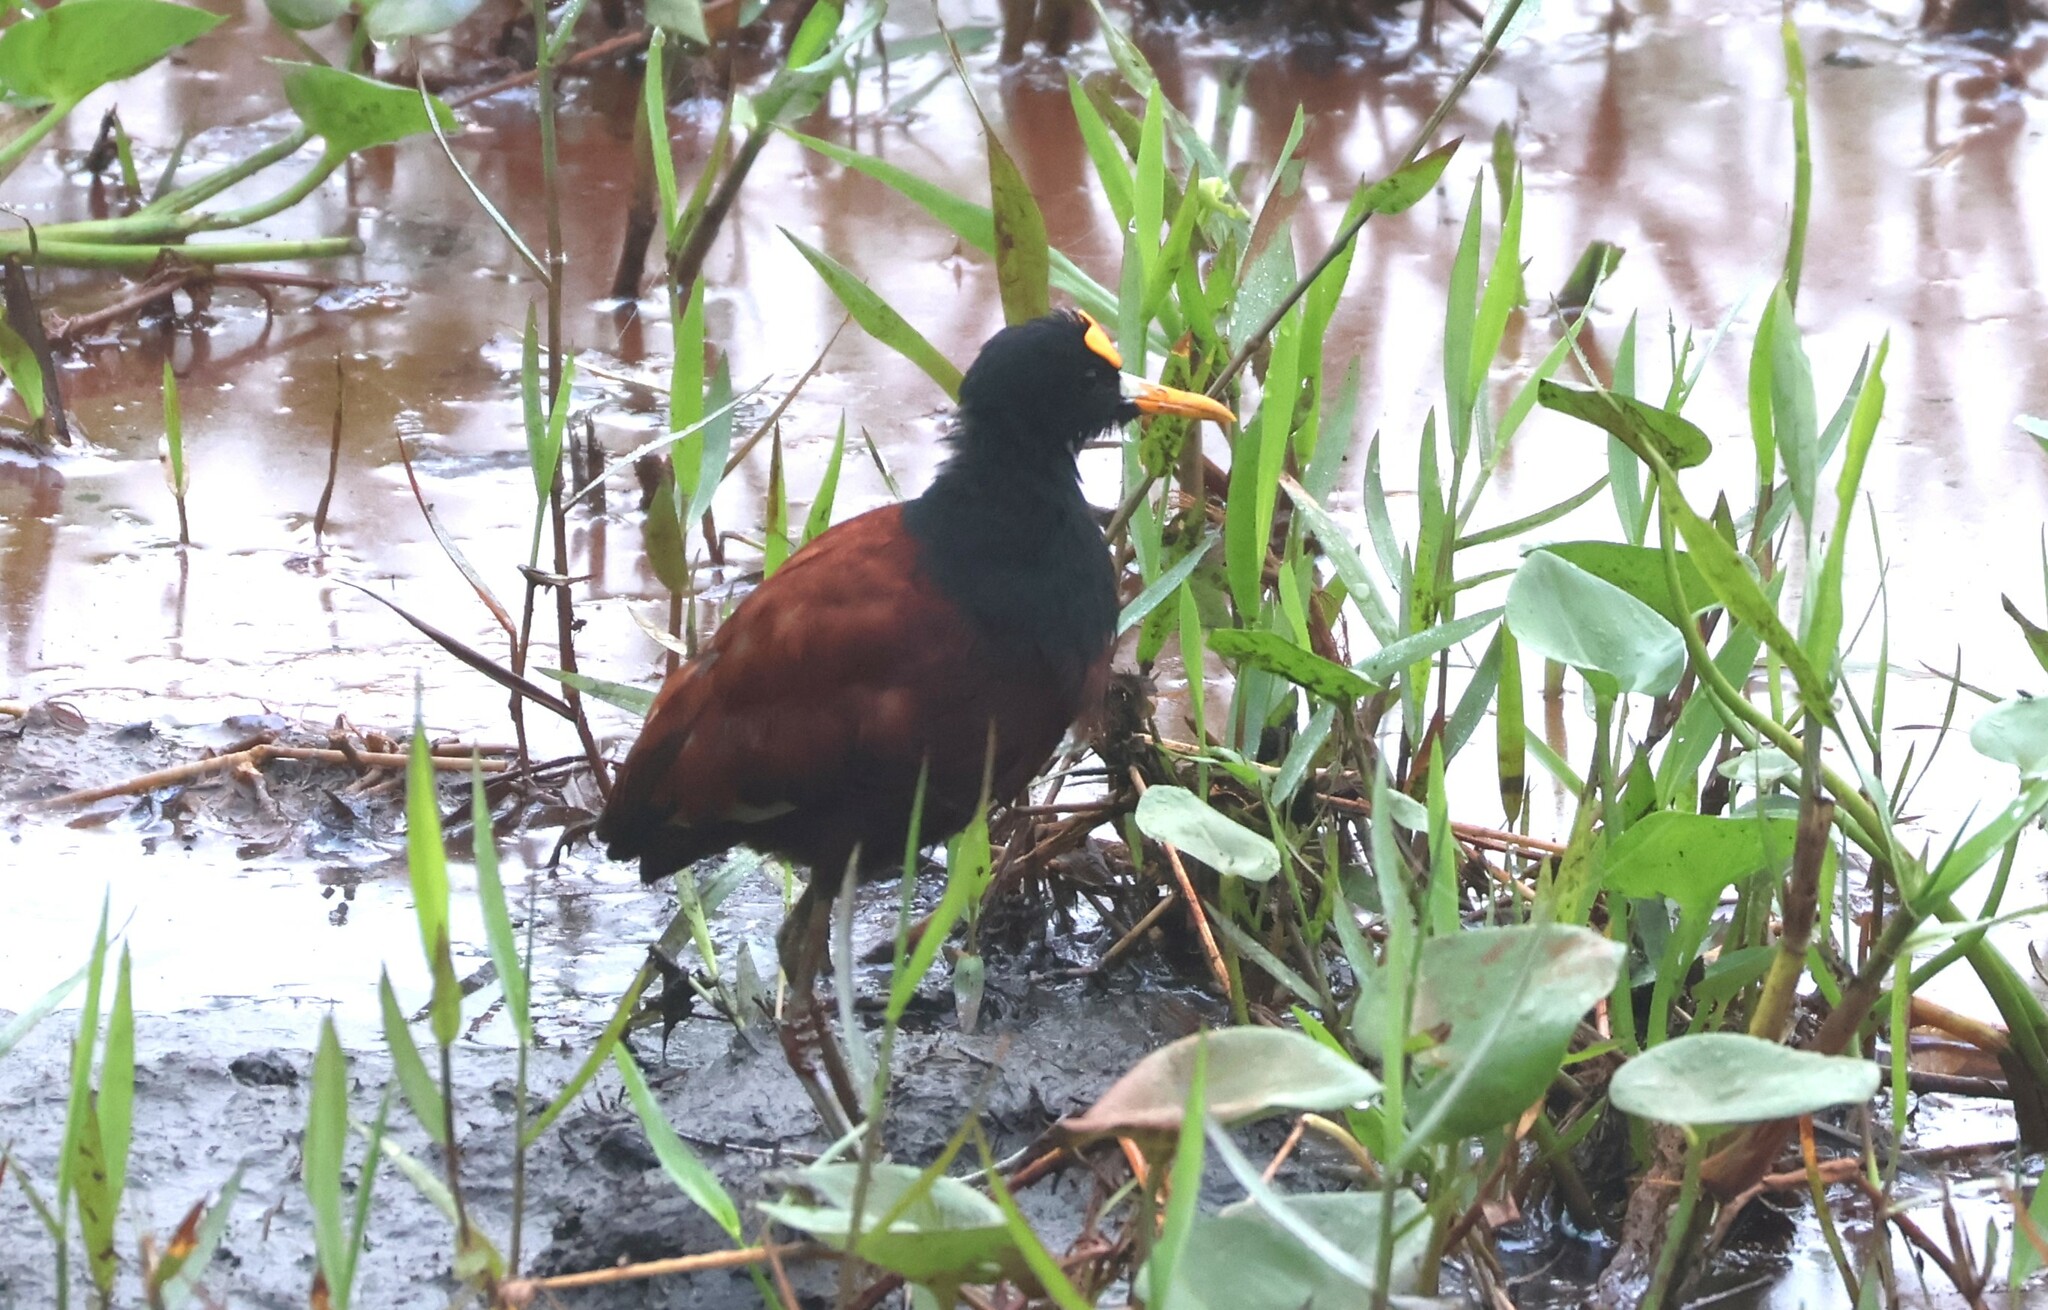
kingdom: Animalia
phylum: Chordata
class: Aves
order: Charadriiformes
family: Jacanidae
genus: Jacana
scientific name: Jacana spinosa
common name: Northern jacana
